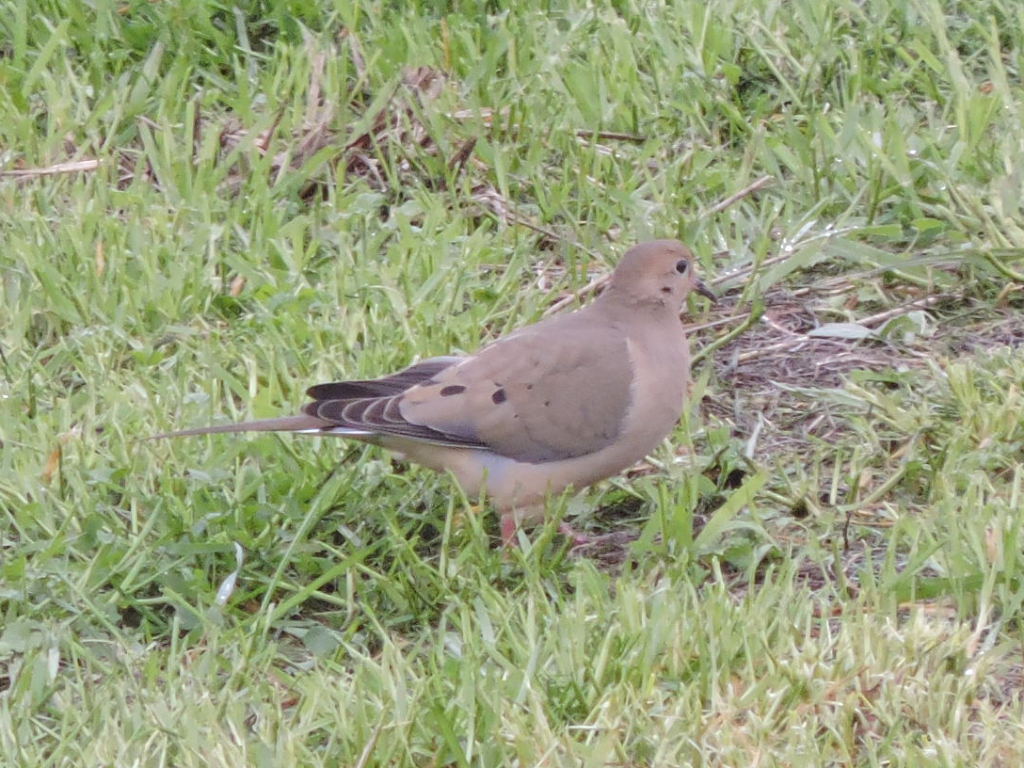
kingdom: Animalia
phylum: Chordata
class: Aves
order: Columbiformes
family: Columbidae
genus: Zenaida
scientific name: Zenaida macroura
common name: Mourning dove
